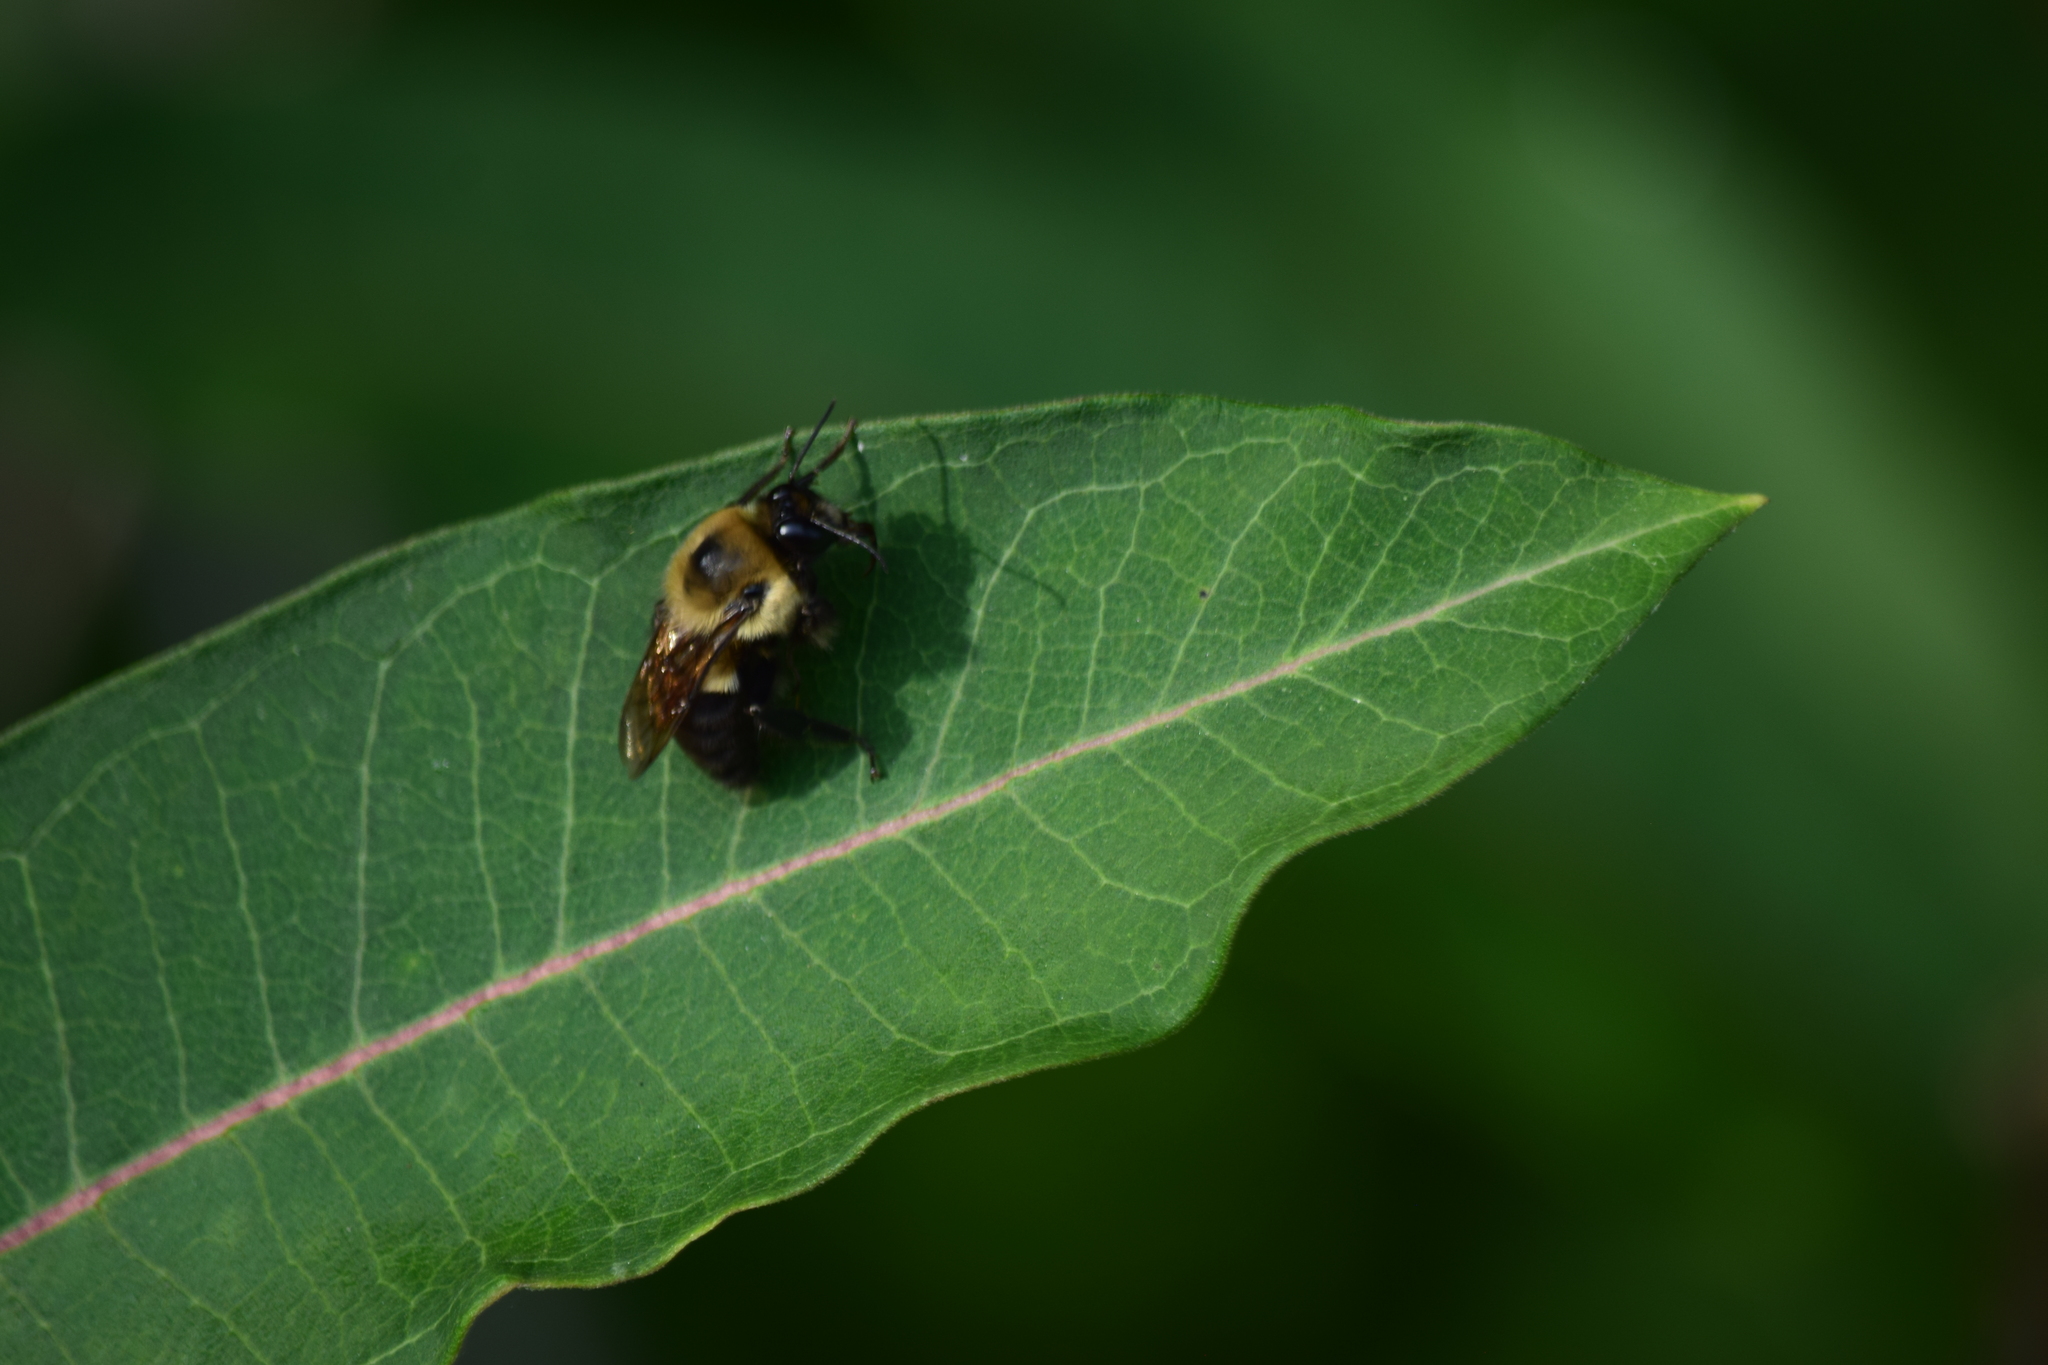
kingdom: Animalia
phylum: Arthropoda
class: Insecta
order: Hymenoptera
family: Apidae
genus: Bombus
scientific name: Bombus griseocollis
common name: Brown-belted bumble bee
